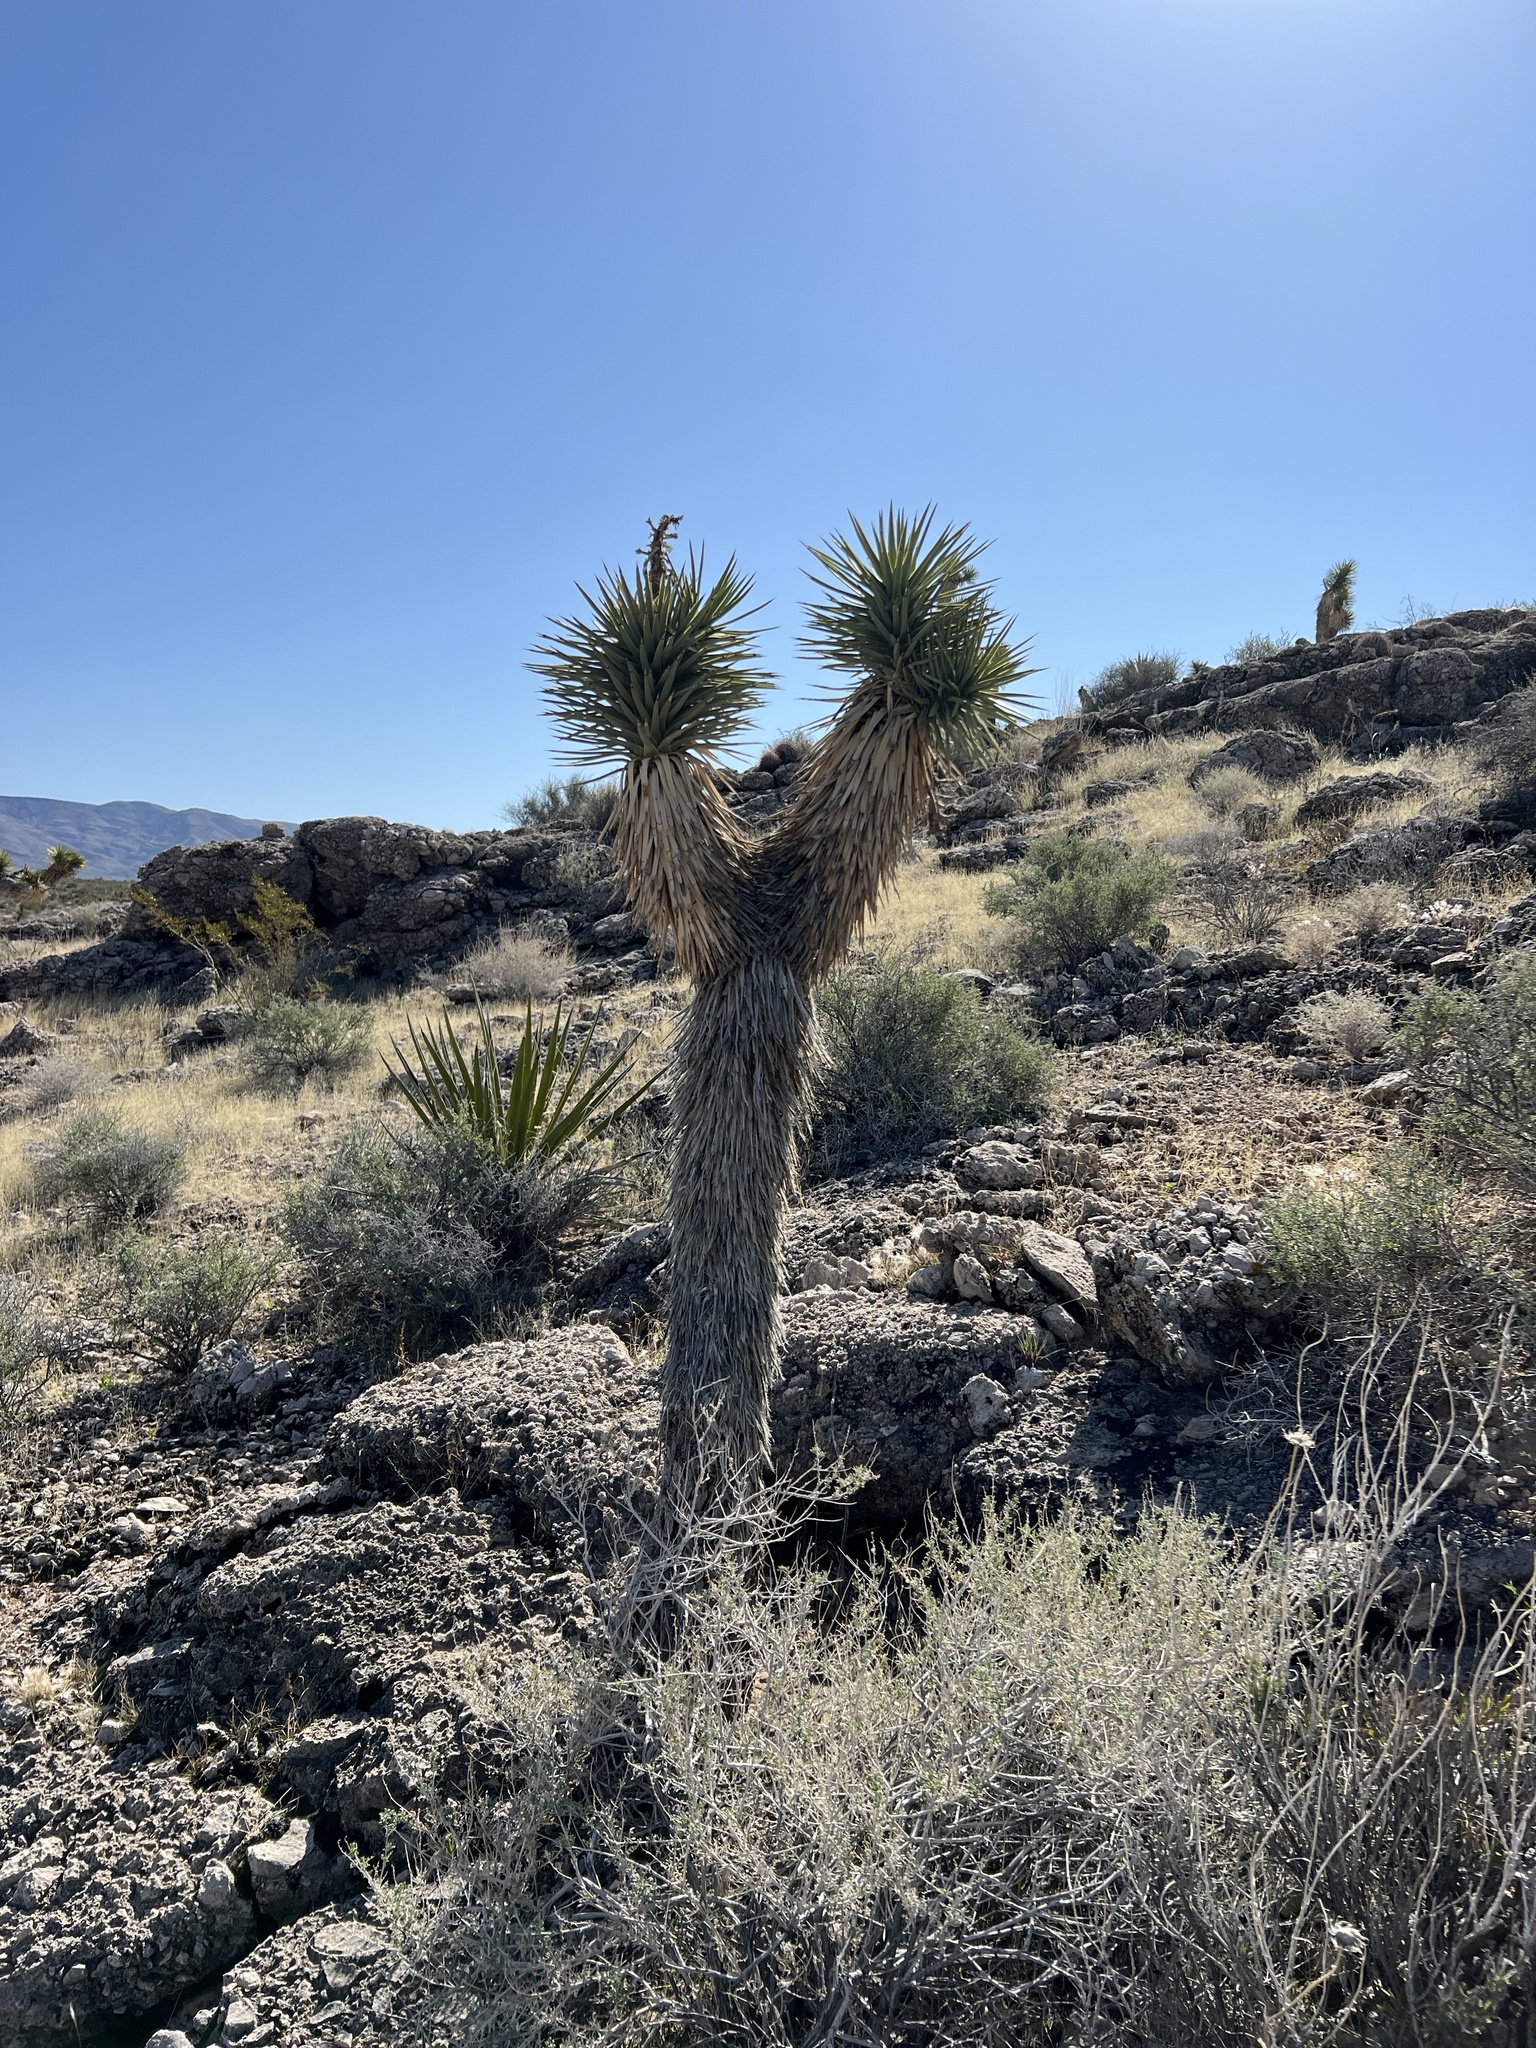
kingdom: Plantae
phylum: Tracheophyta
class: Liliopsida
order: Asparagales
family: Asparagaceae
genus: Yucca
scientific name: Yucca brevifolia
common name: Joshua tree
